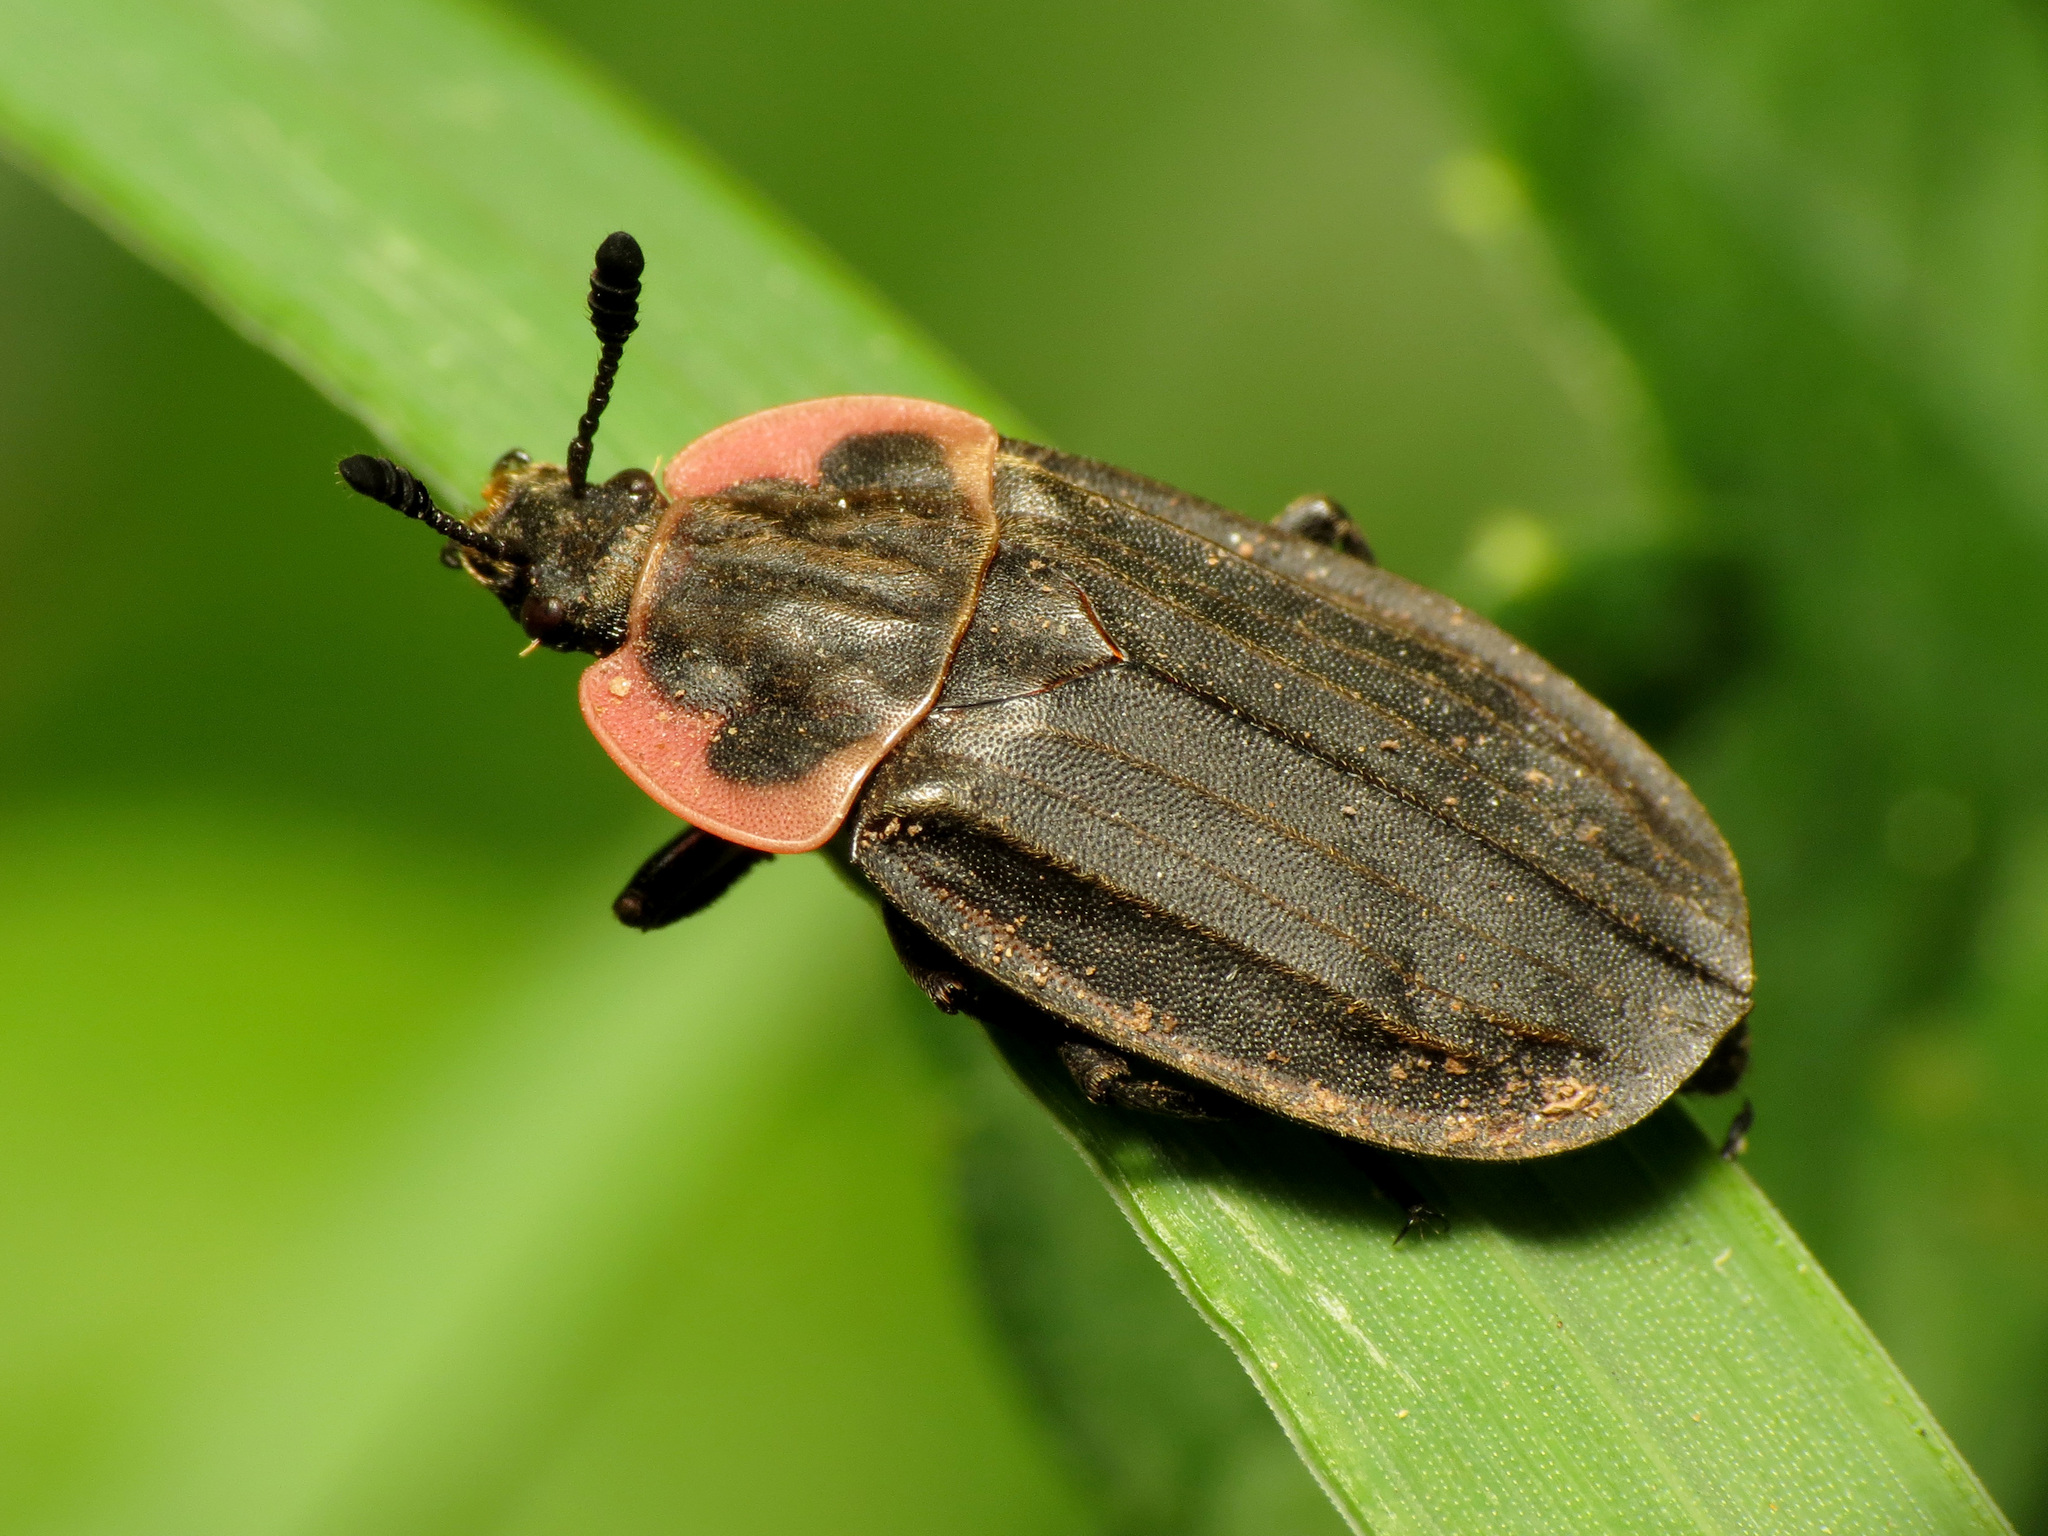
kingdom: Animalia
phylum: Arthropoda
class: Insecta
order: Coleoptera
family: Staphylinidae
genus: Oiceoptoma
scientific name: Oiceoptoma noveboracense
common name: Margined carrion beetle
